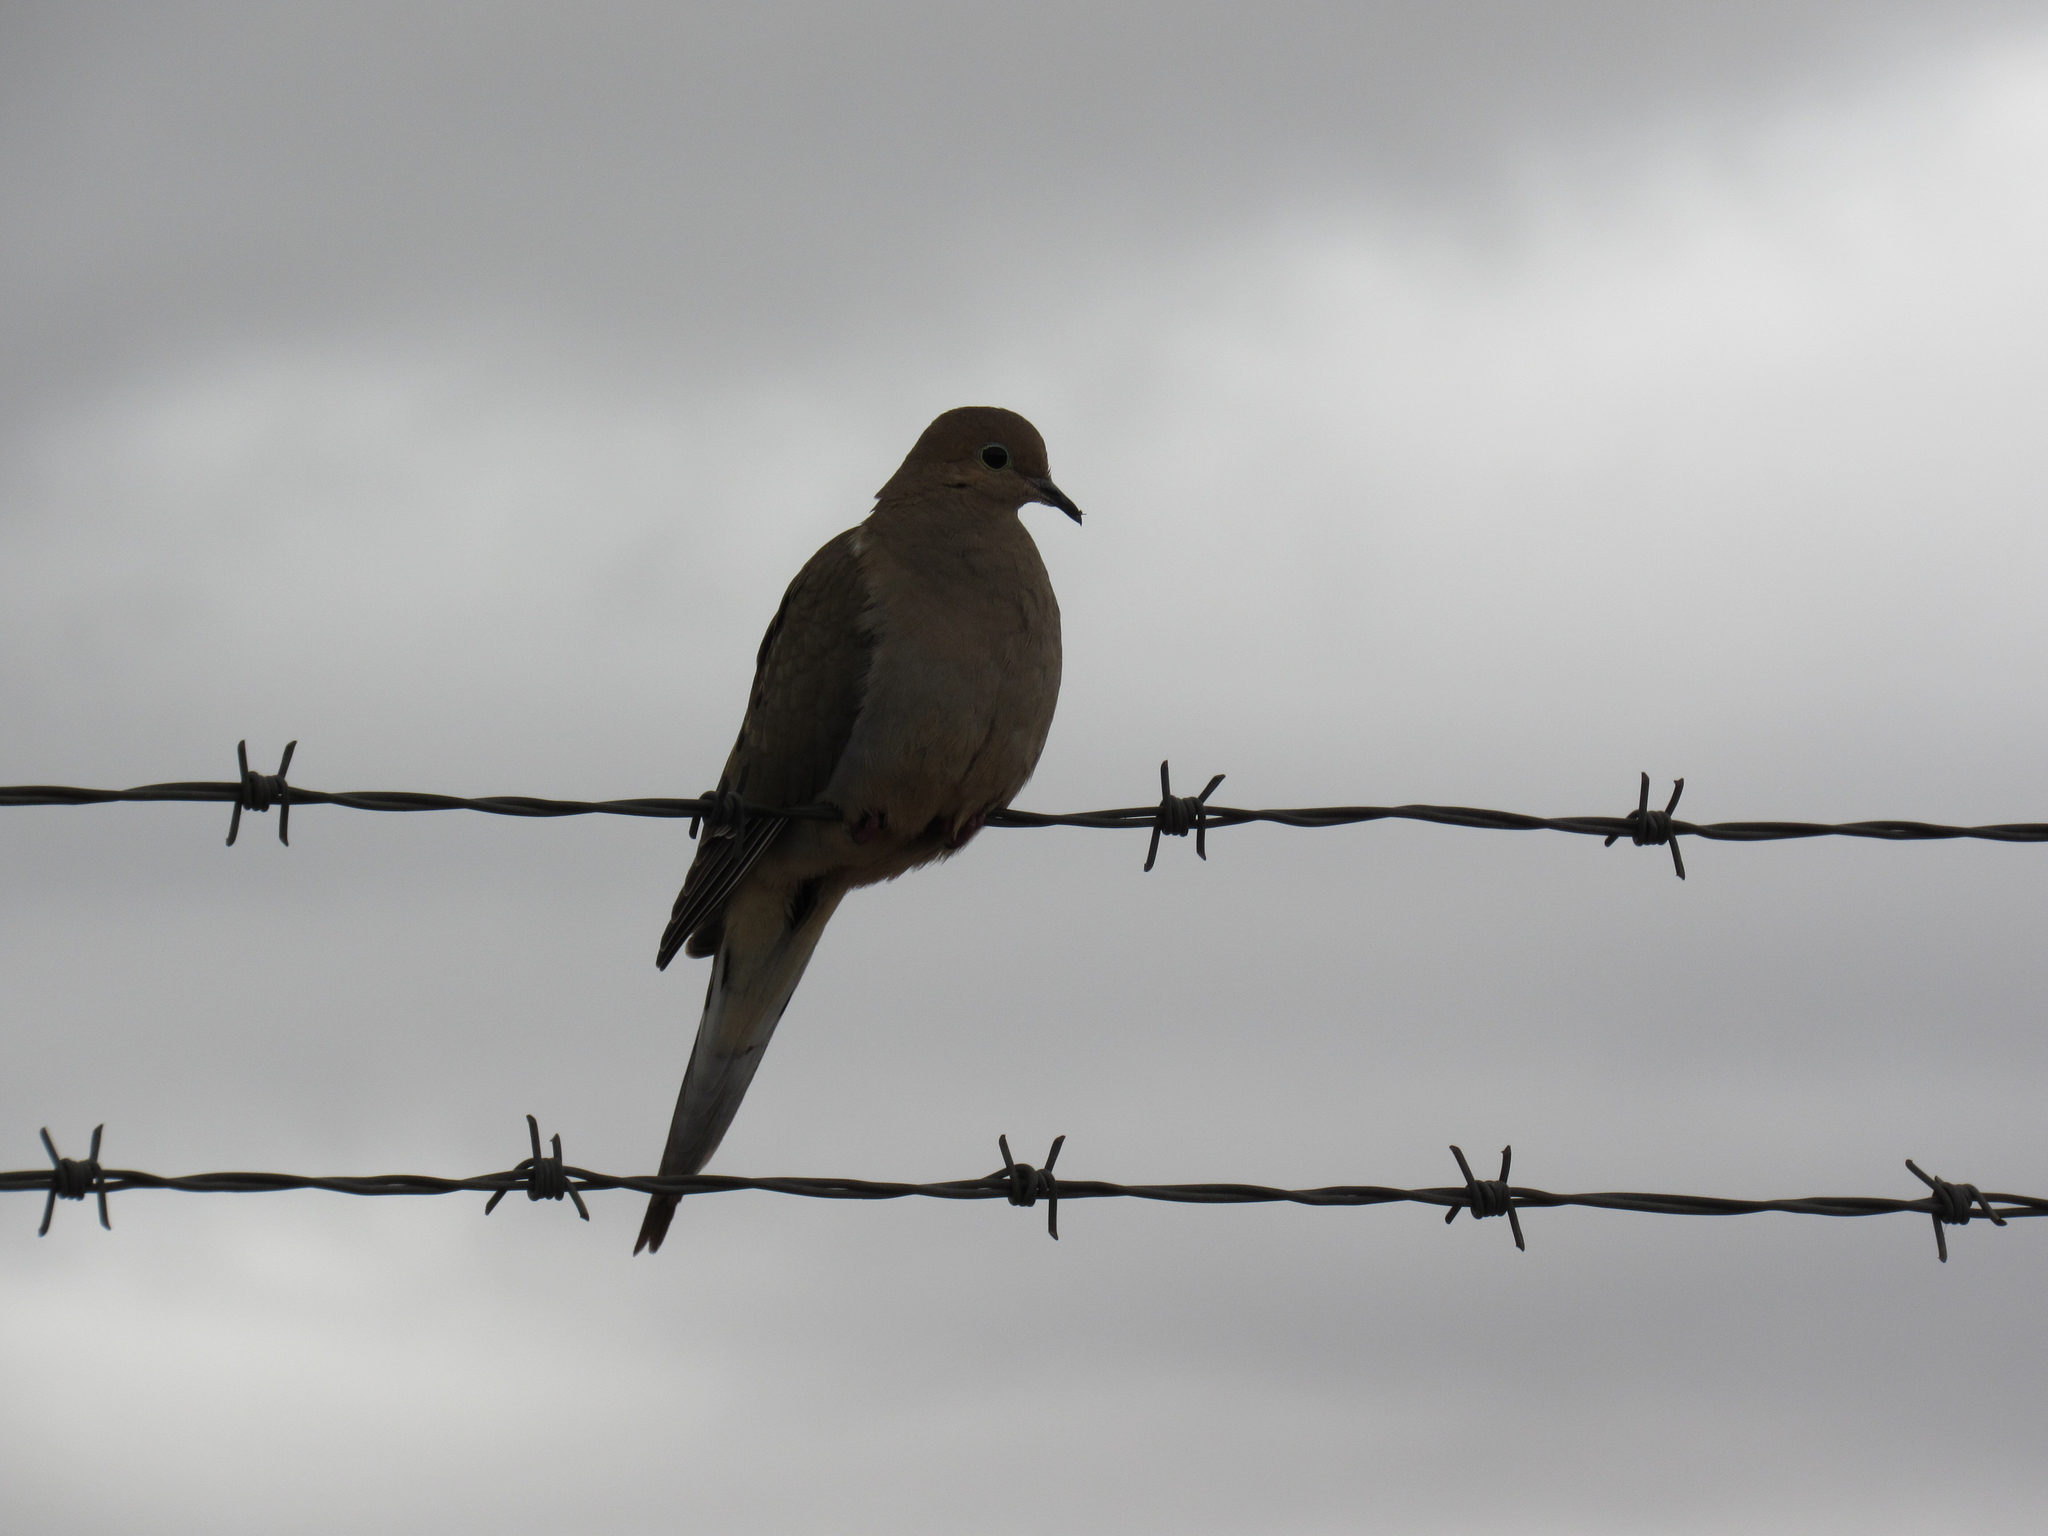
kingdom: Animalia
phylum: Chordata
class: Aves
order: Columbiformes
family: Columbidae
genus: Zenaida
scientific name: Zenaida macroura
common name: Mourning dove
